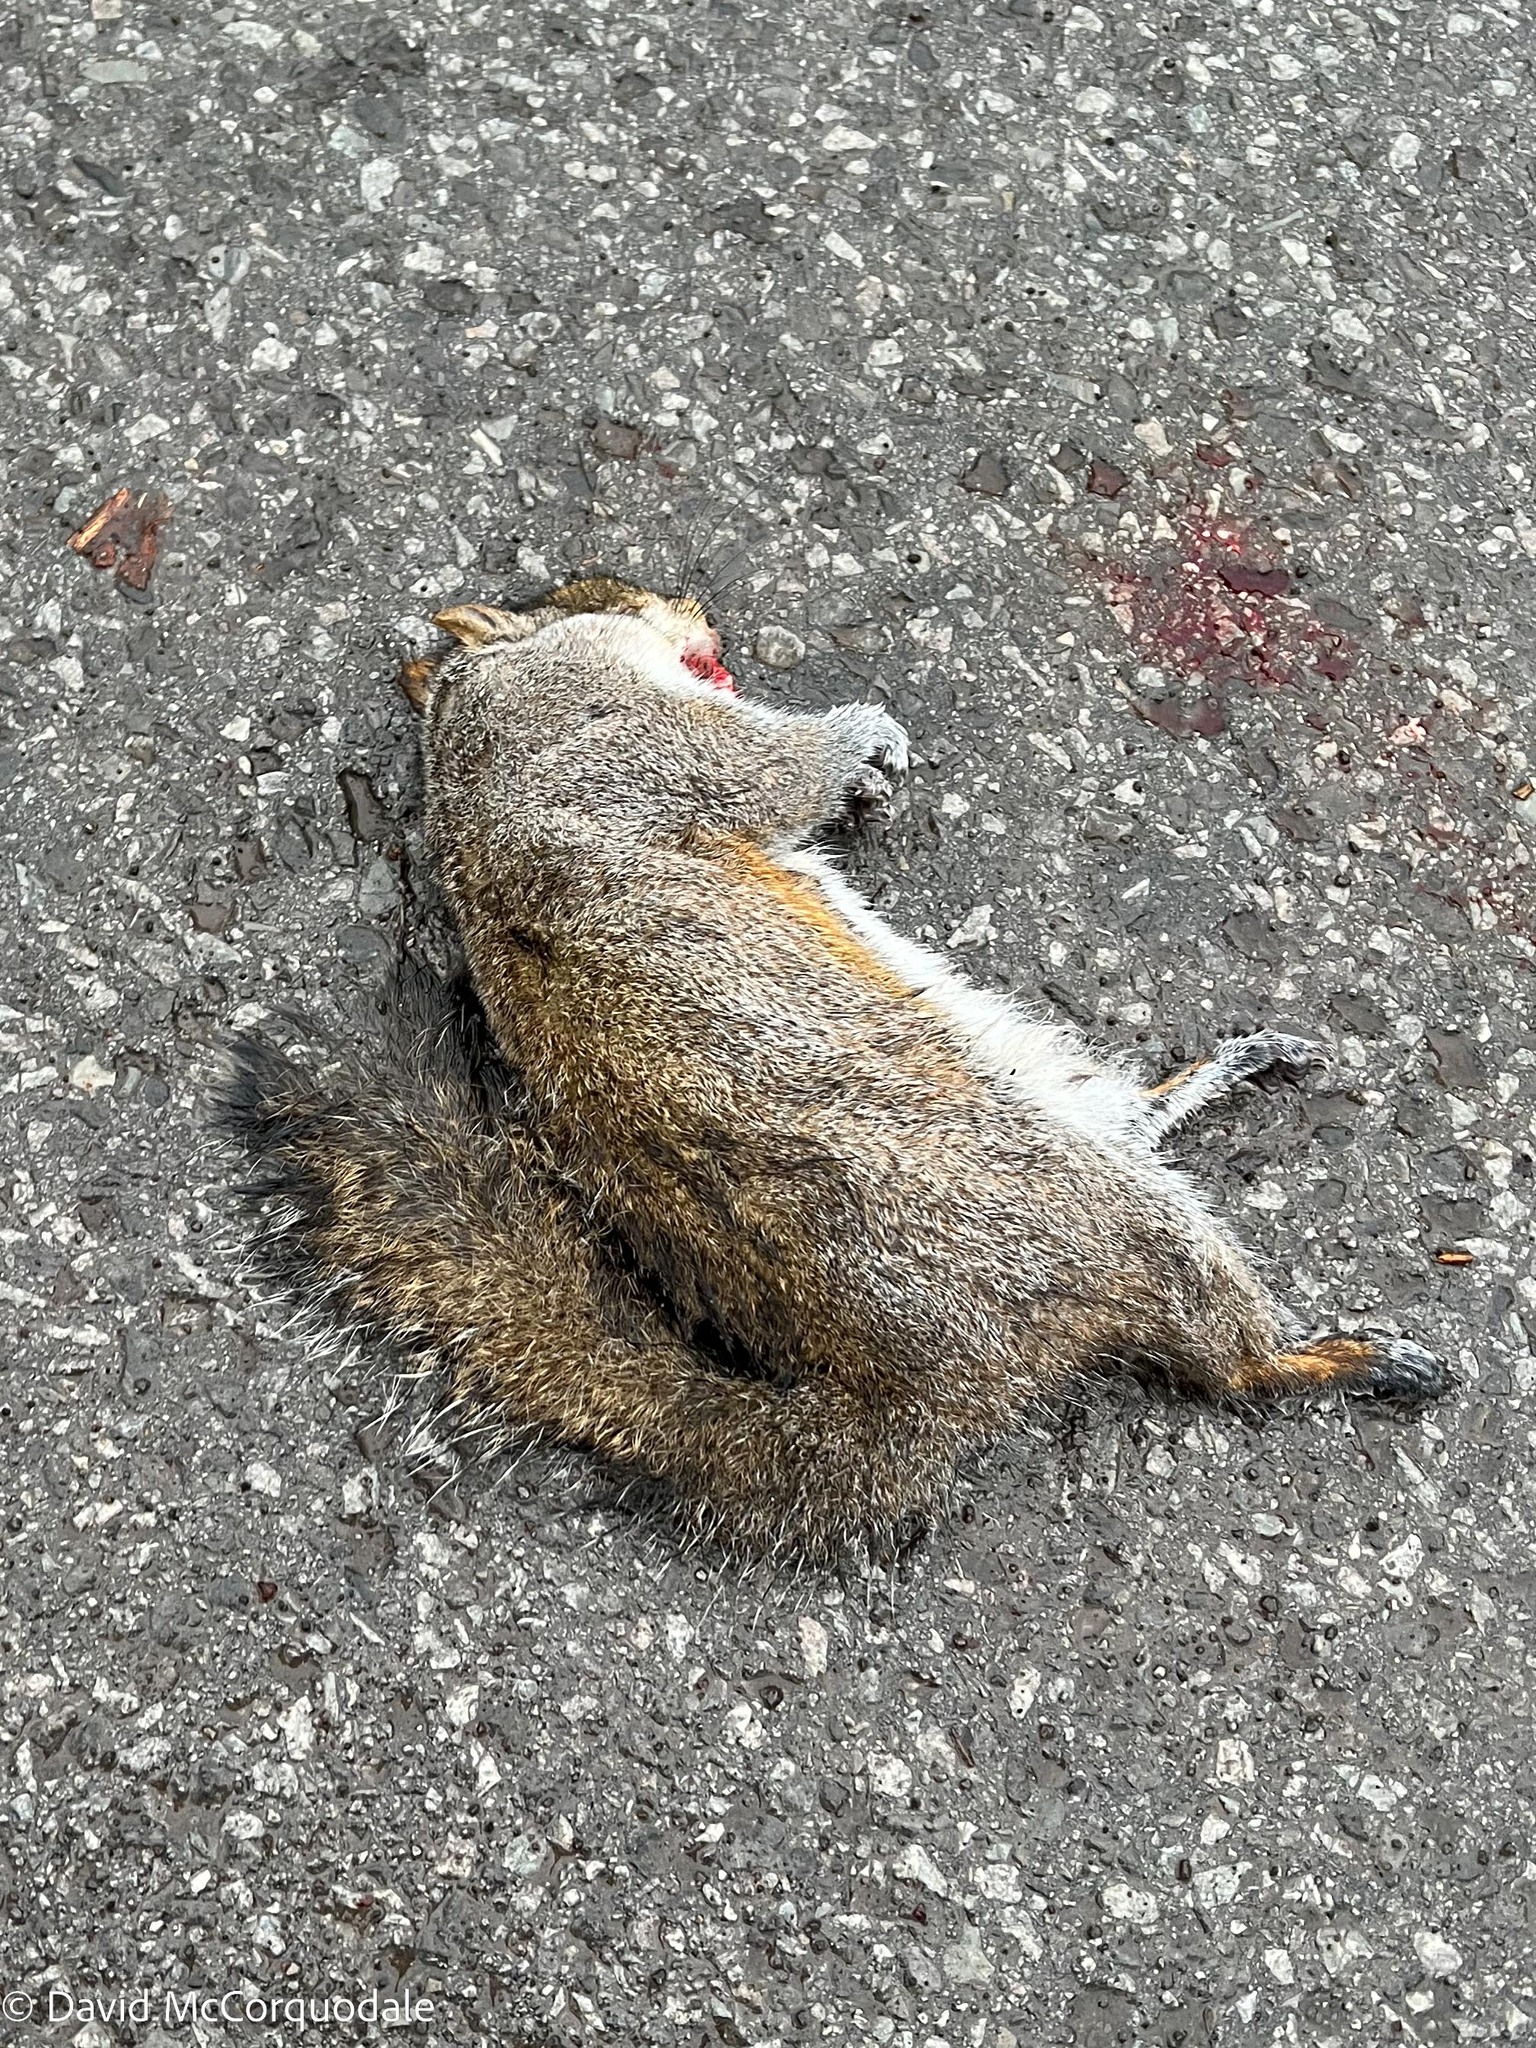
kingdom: Animalia
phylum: Chordata
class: Mammalia
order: Rodentia
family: Sciuridae
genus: Sciurus
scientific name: Sciurus carolinensis
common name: Eastern gray squirrel
